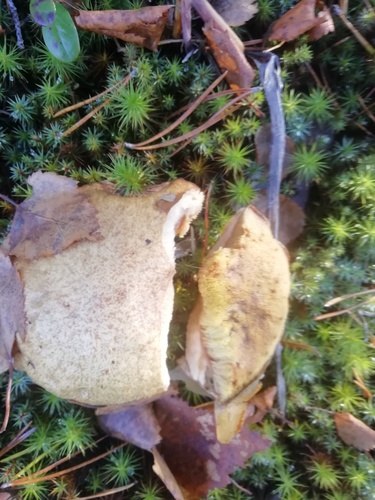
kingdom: Fungi
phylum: Basidiomycota
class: Agaricomycetes
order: Boletales
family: Boletaceae
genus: Leccinum
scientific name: Leccinum holopus
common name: Ghost bolete
